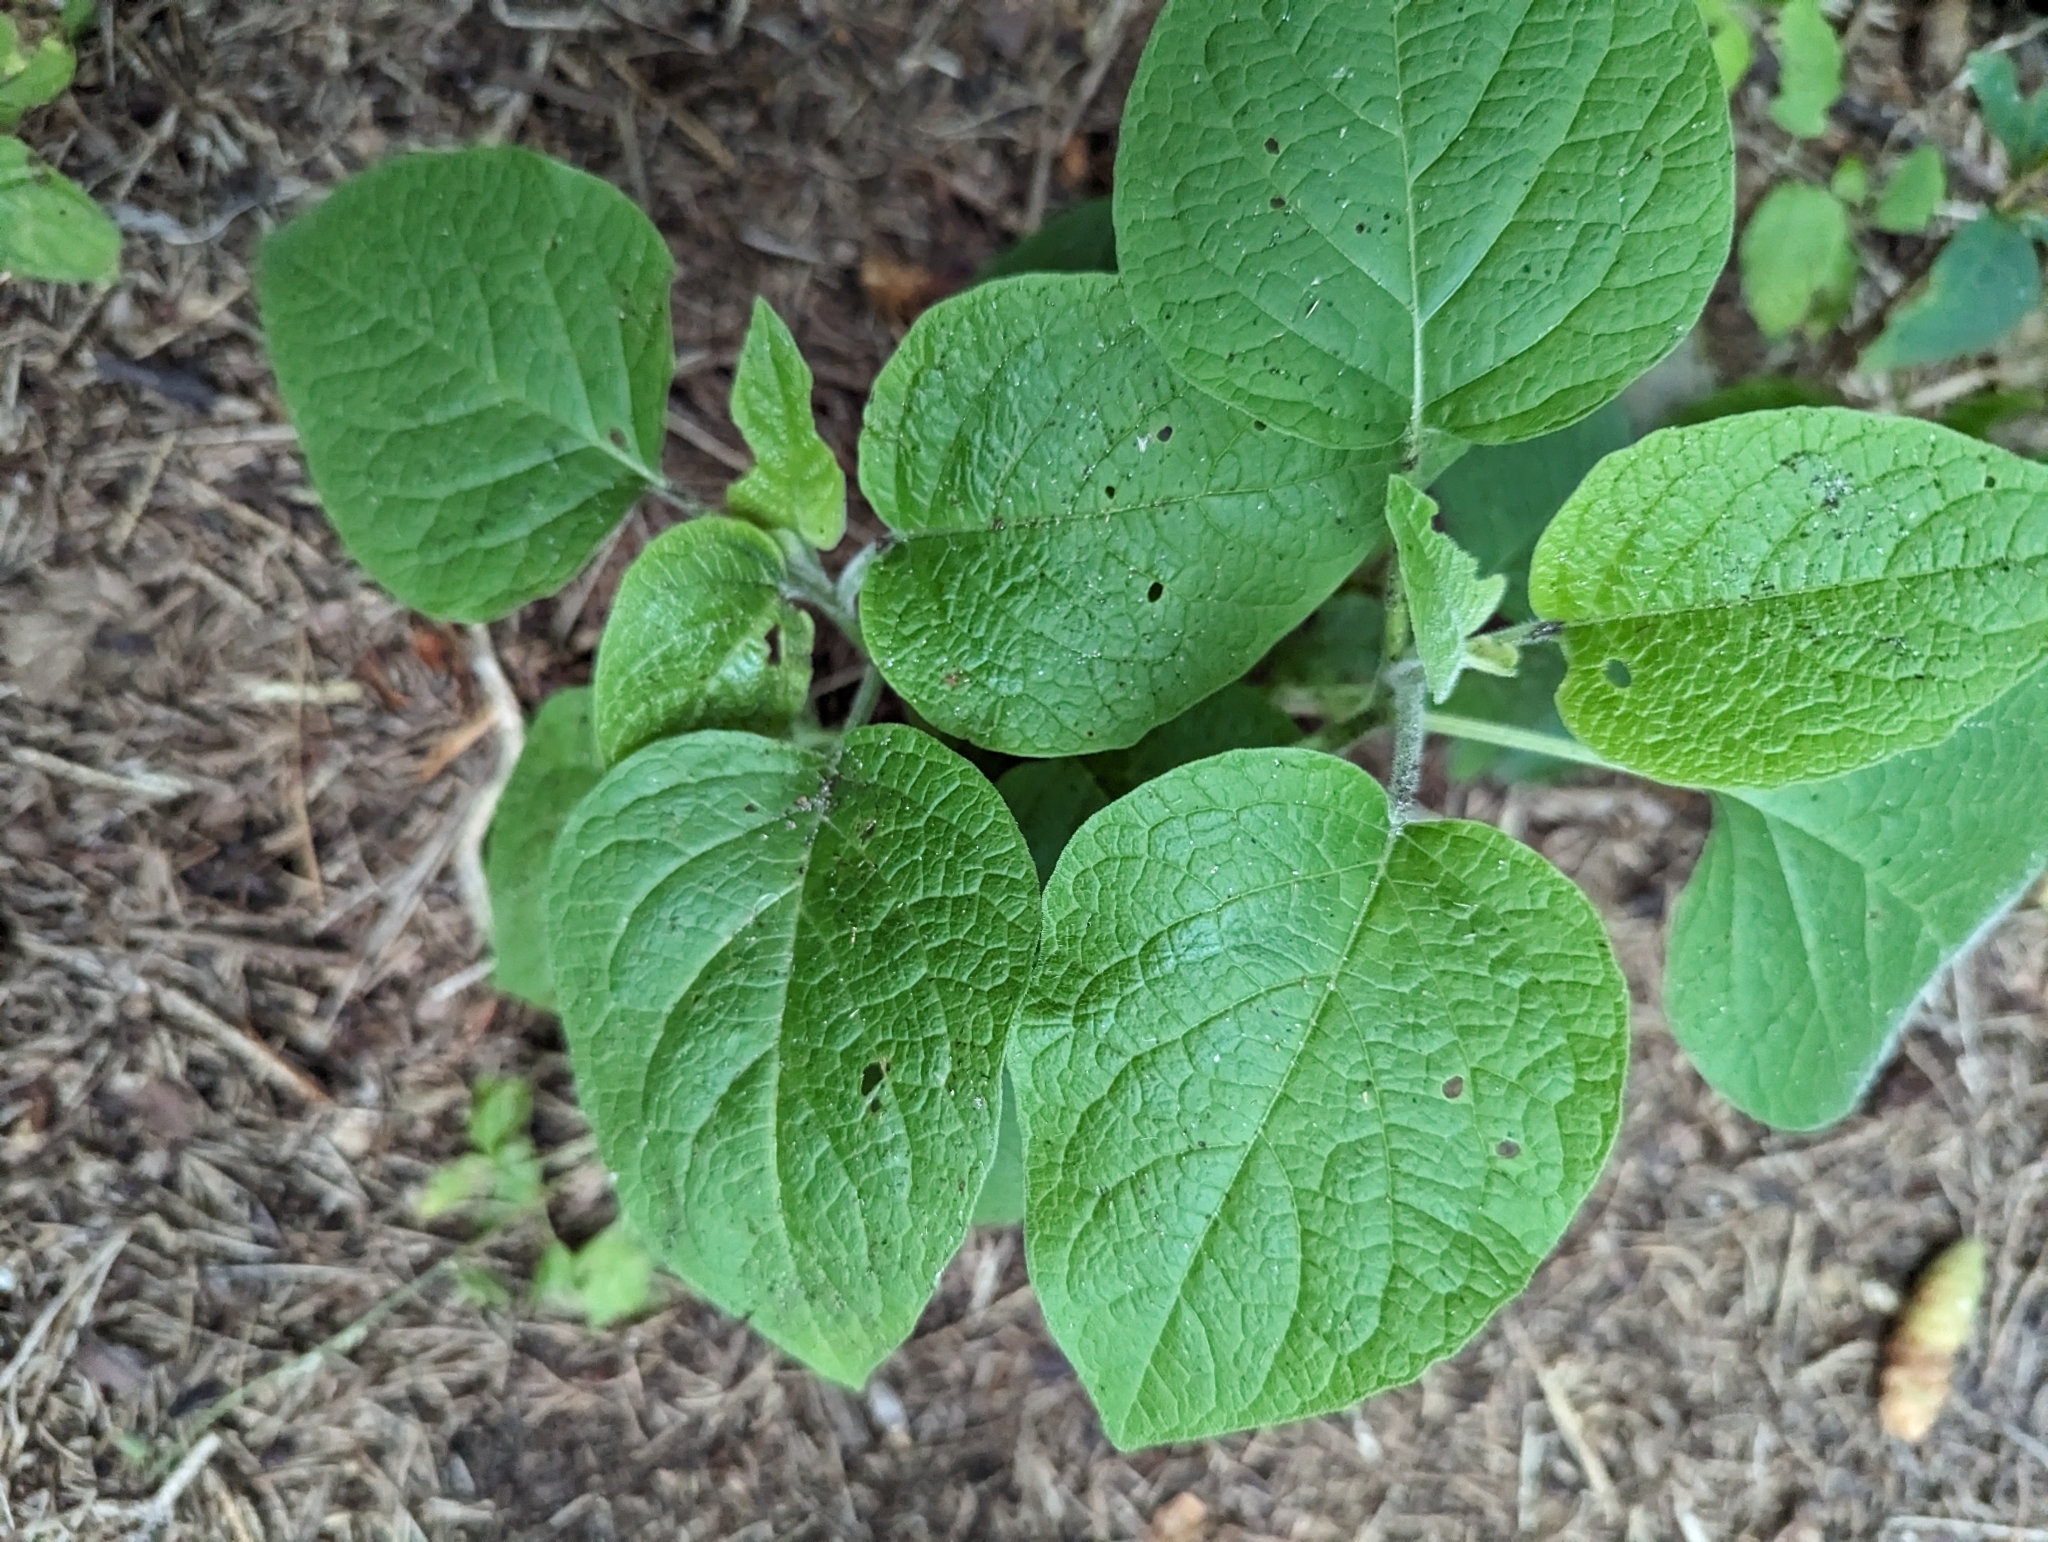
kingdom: Plantae
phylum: Tracheophyta
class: Magnoliopsida
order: Solanales
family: Solanaceae
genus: Physalis
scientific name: Physalis heterophylla
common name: Clammy ground-cherry
